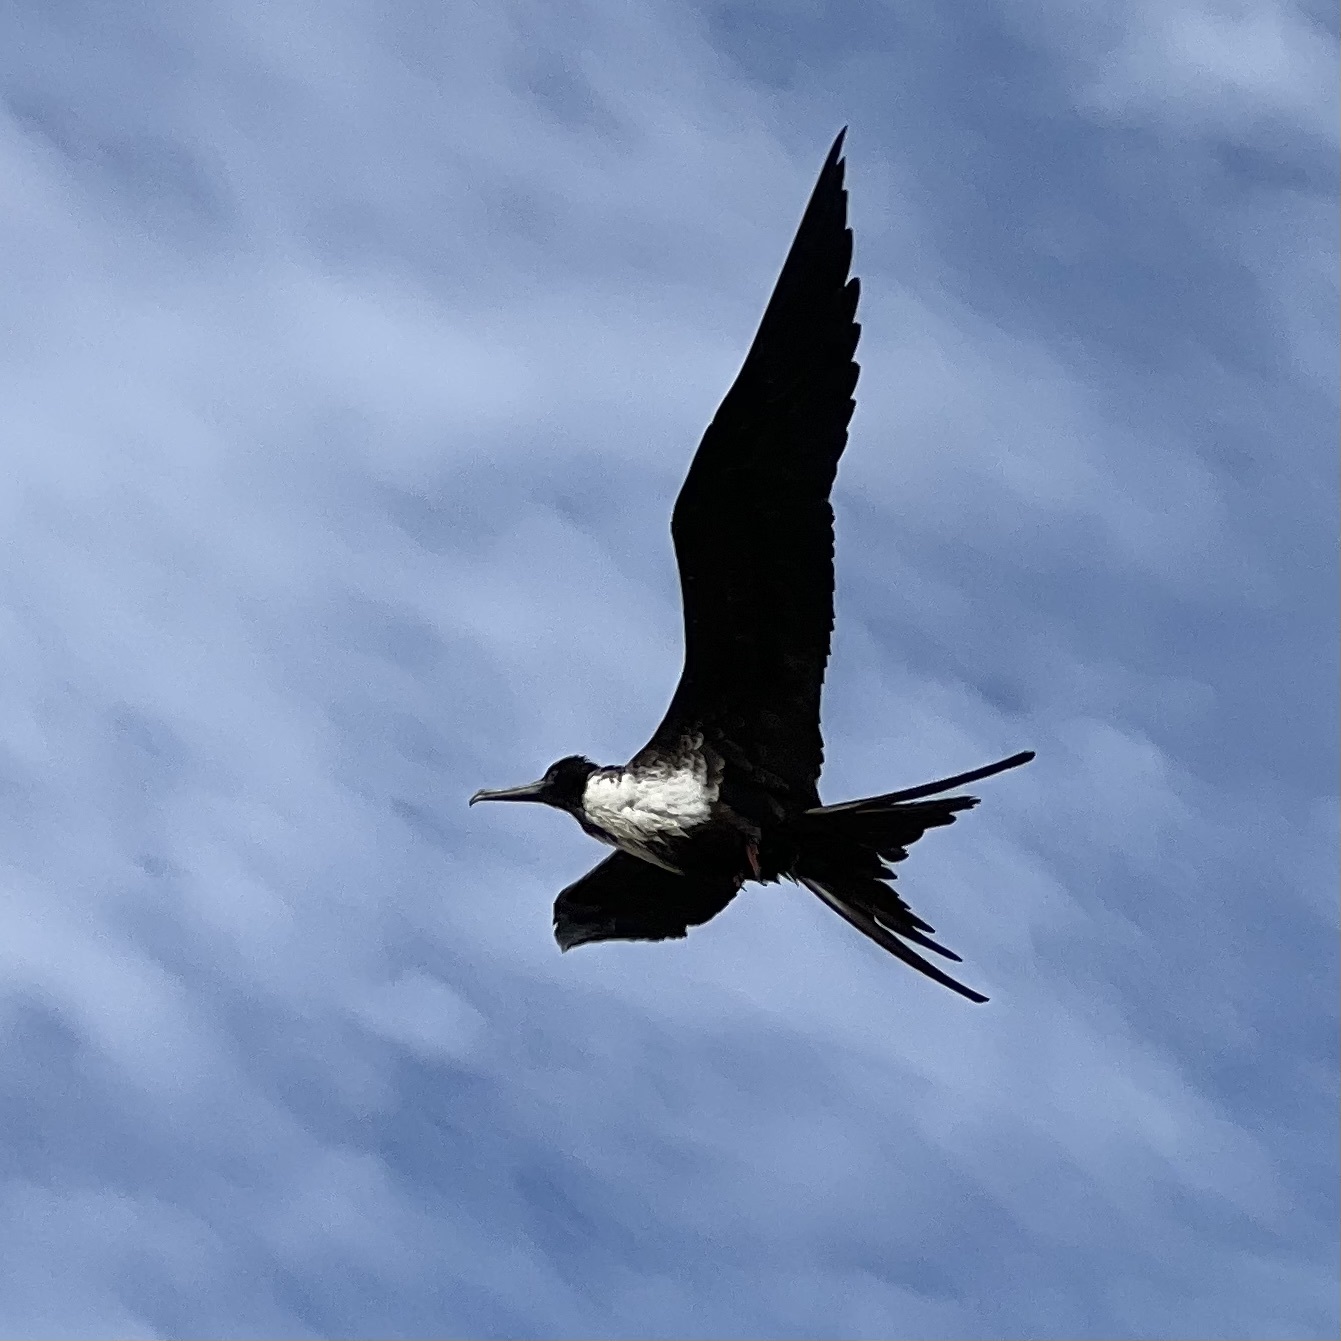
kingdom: Animalia
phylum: Chordata
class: Aves
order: Suliformes
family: Fregatidae
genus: Fregata
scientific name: Fregata magnificens
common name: Magnificent frigatebird
